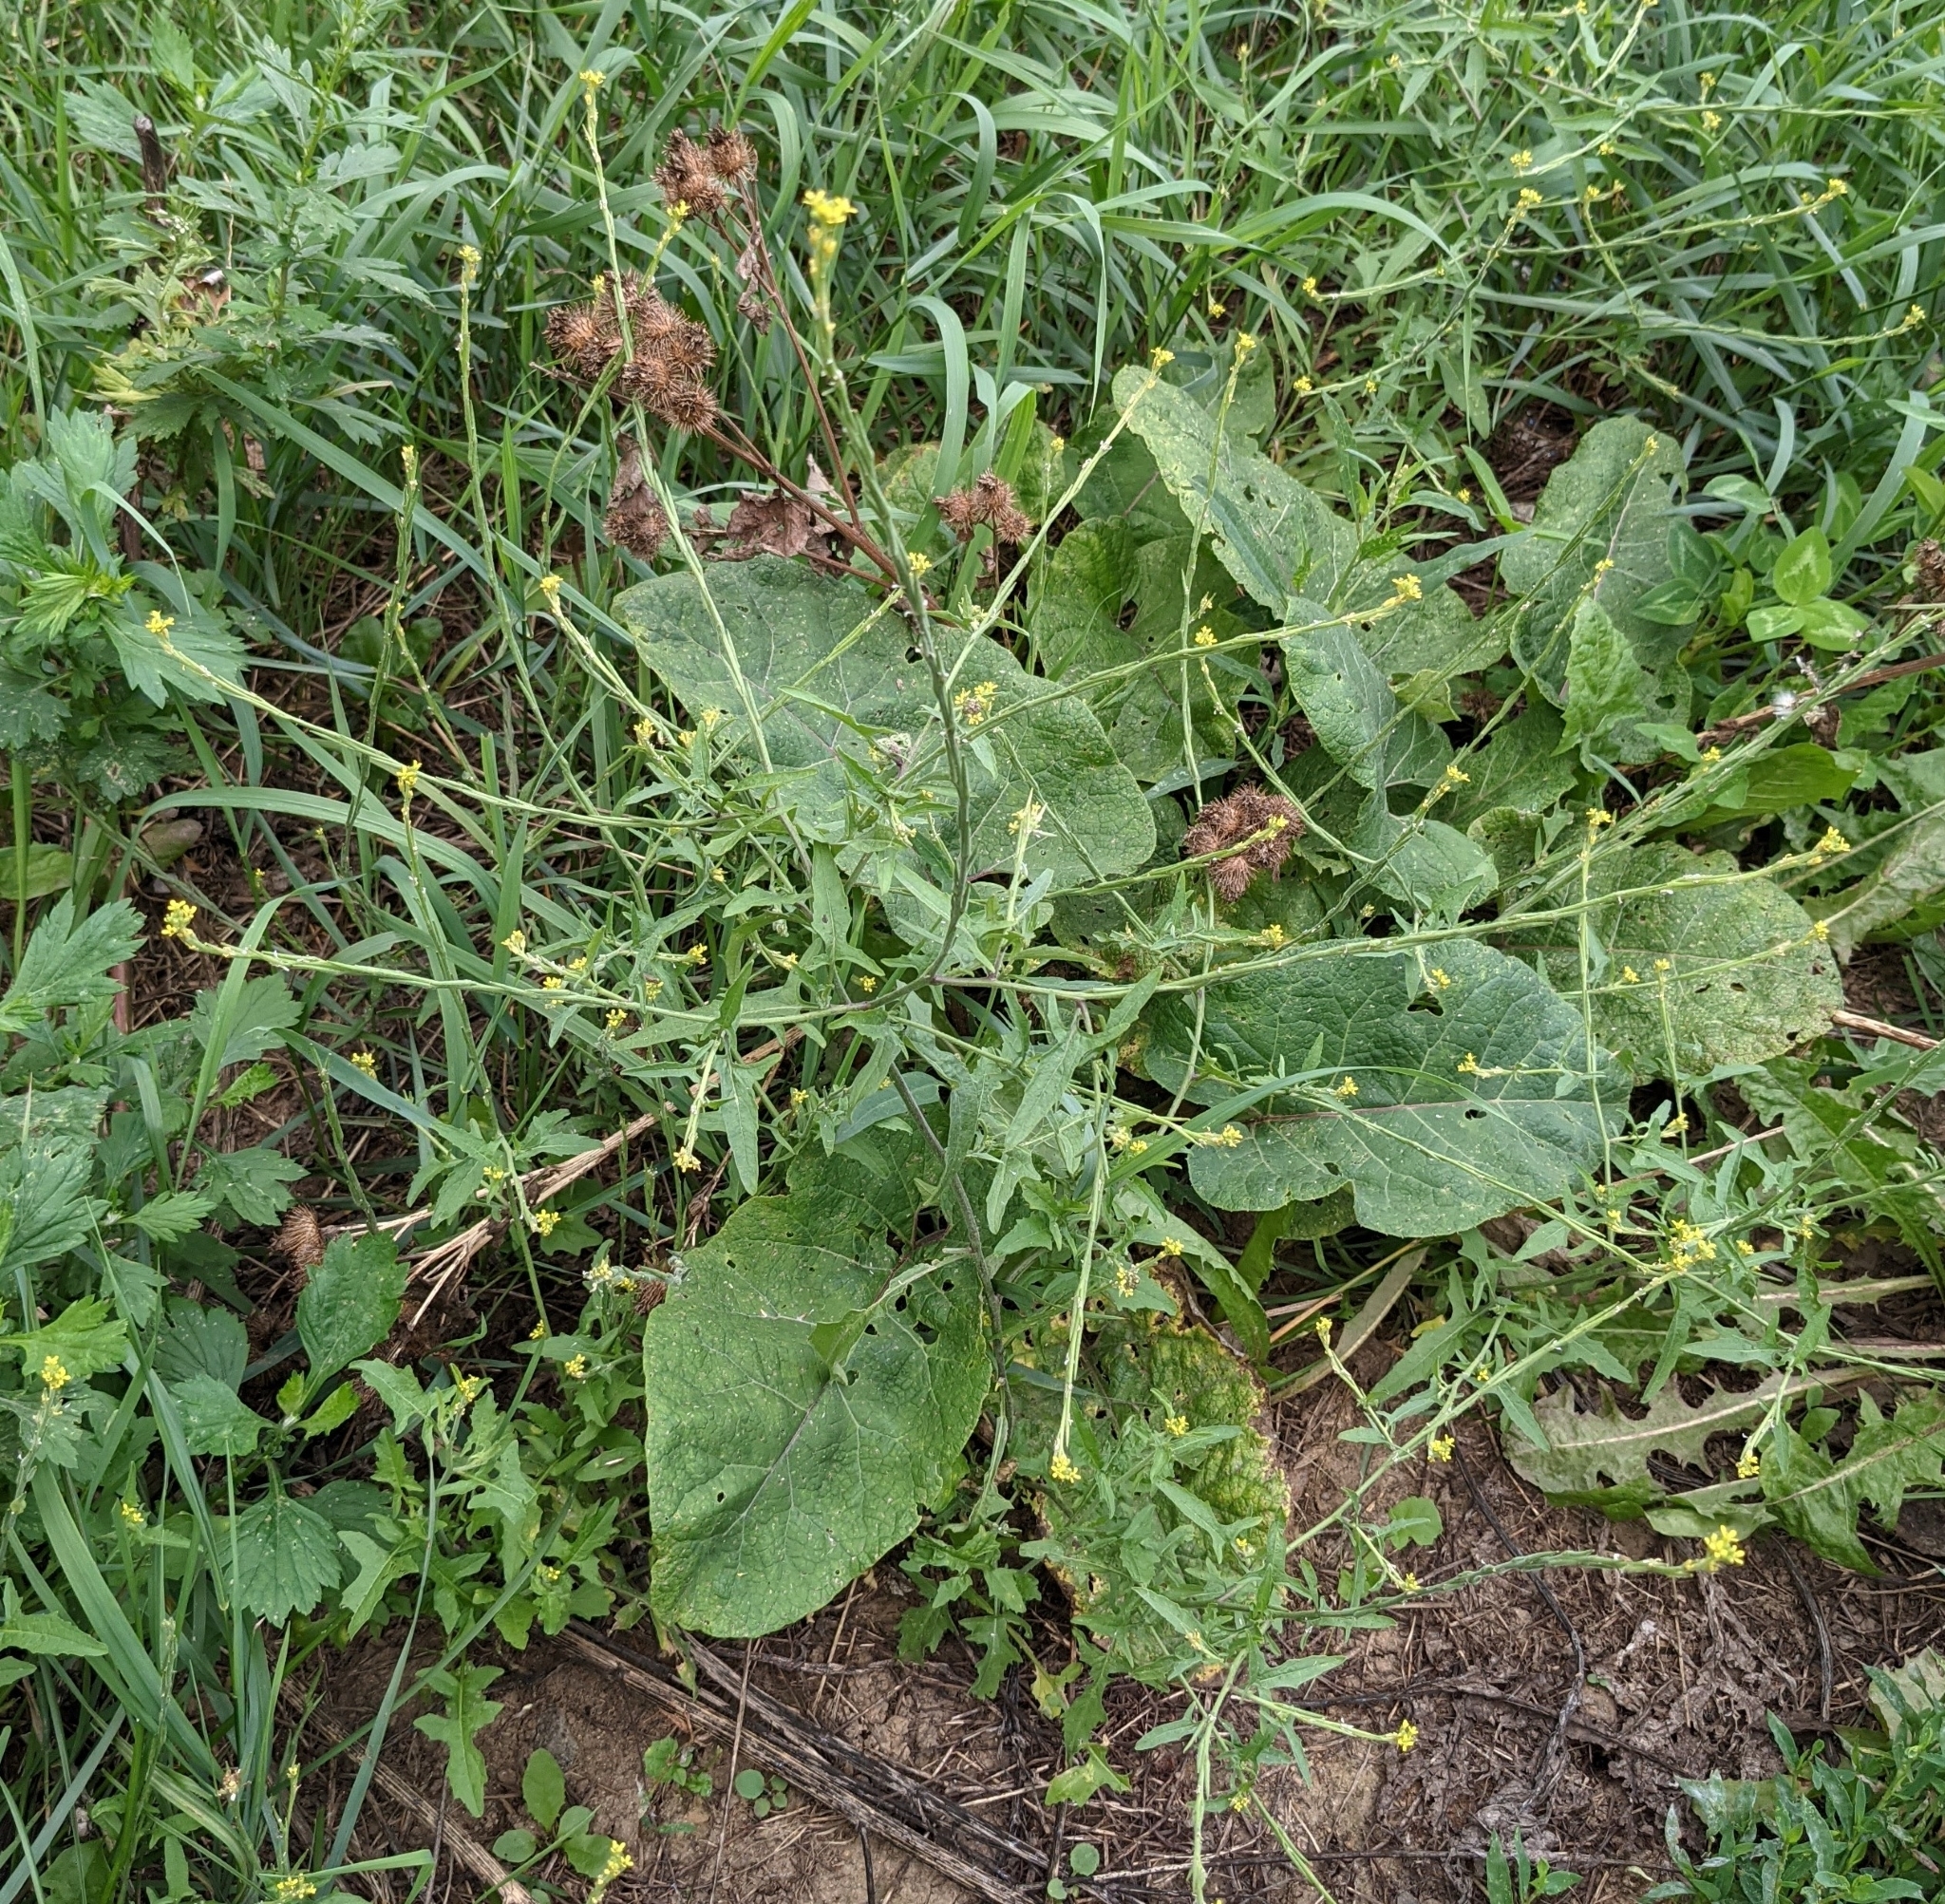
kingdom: Plantae
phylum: Tracheophyta
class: Magnoliopsida
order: Brassicales
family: Brassicaceae
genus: Sisymbrium
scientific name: Sisymbrium officinale
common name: Hedge mustard
